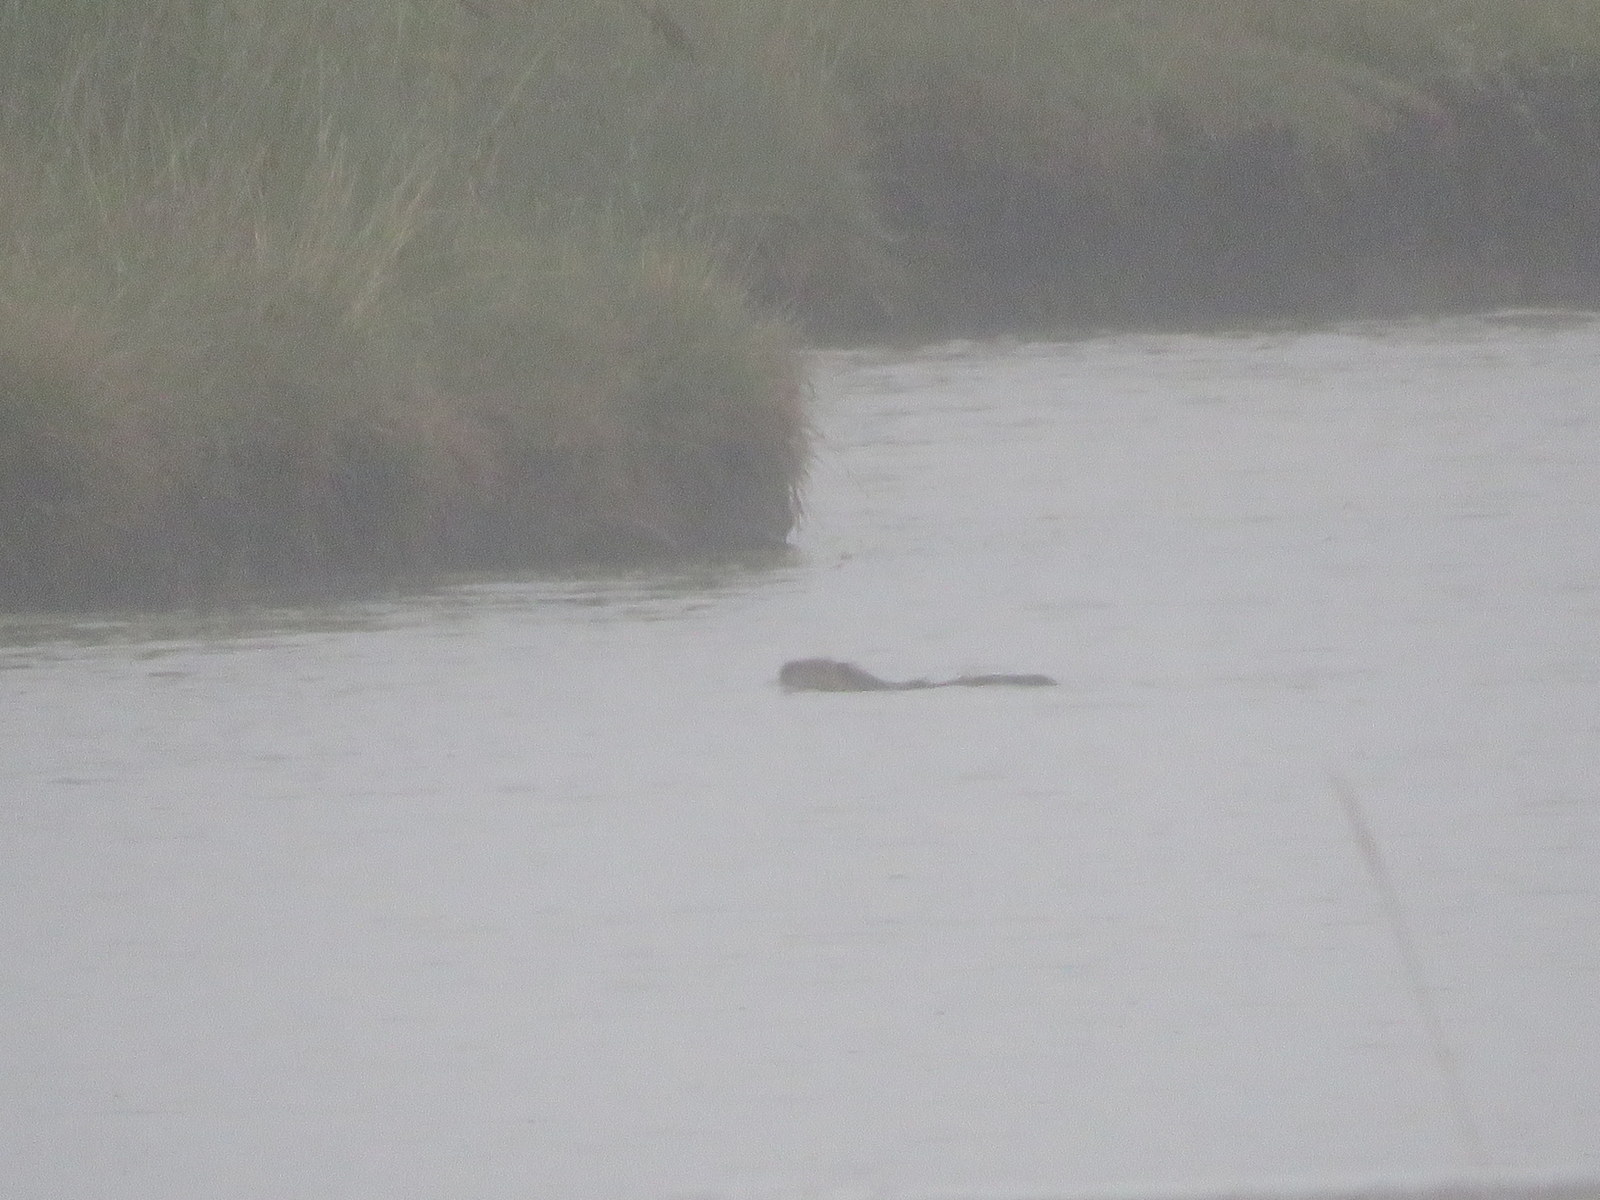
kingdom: Animalia
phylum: Chordata
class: Mammalia
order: Rodentia
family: Myocastoridae
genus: Myocastor
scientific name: Myocastor coypus
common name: Coypu
